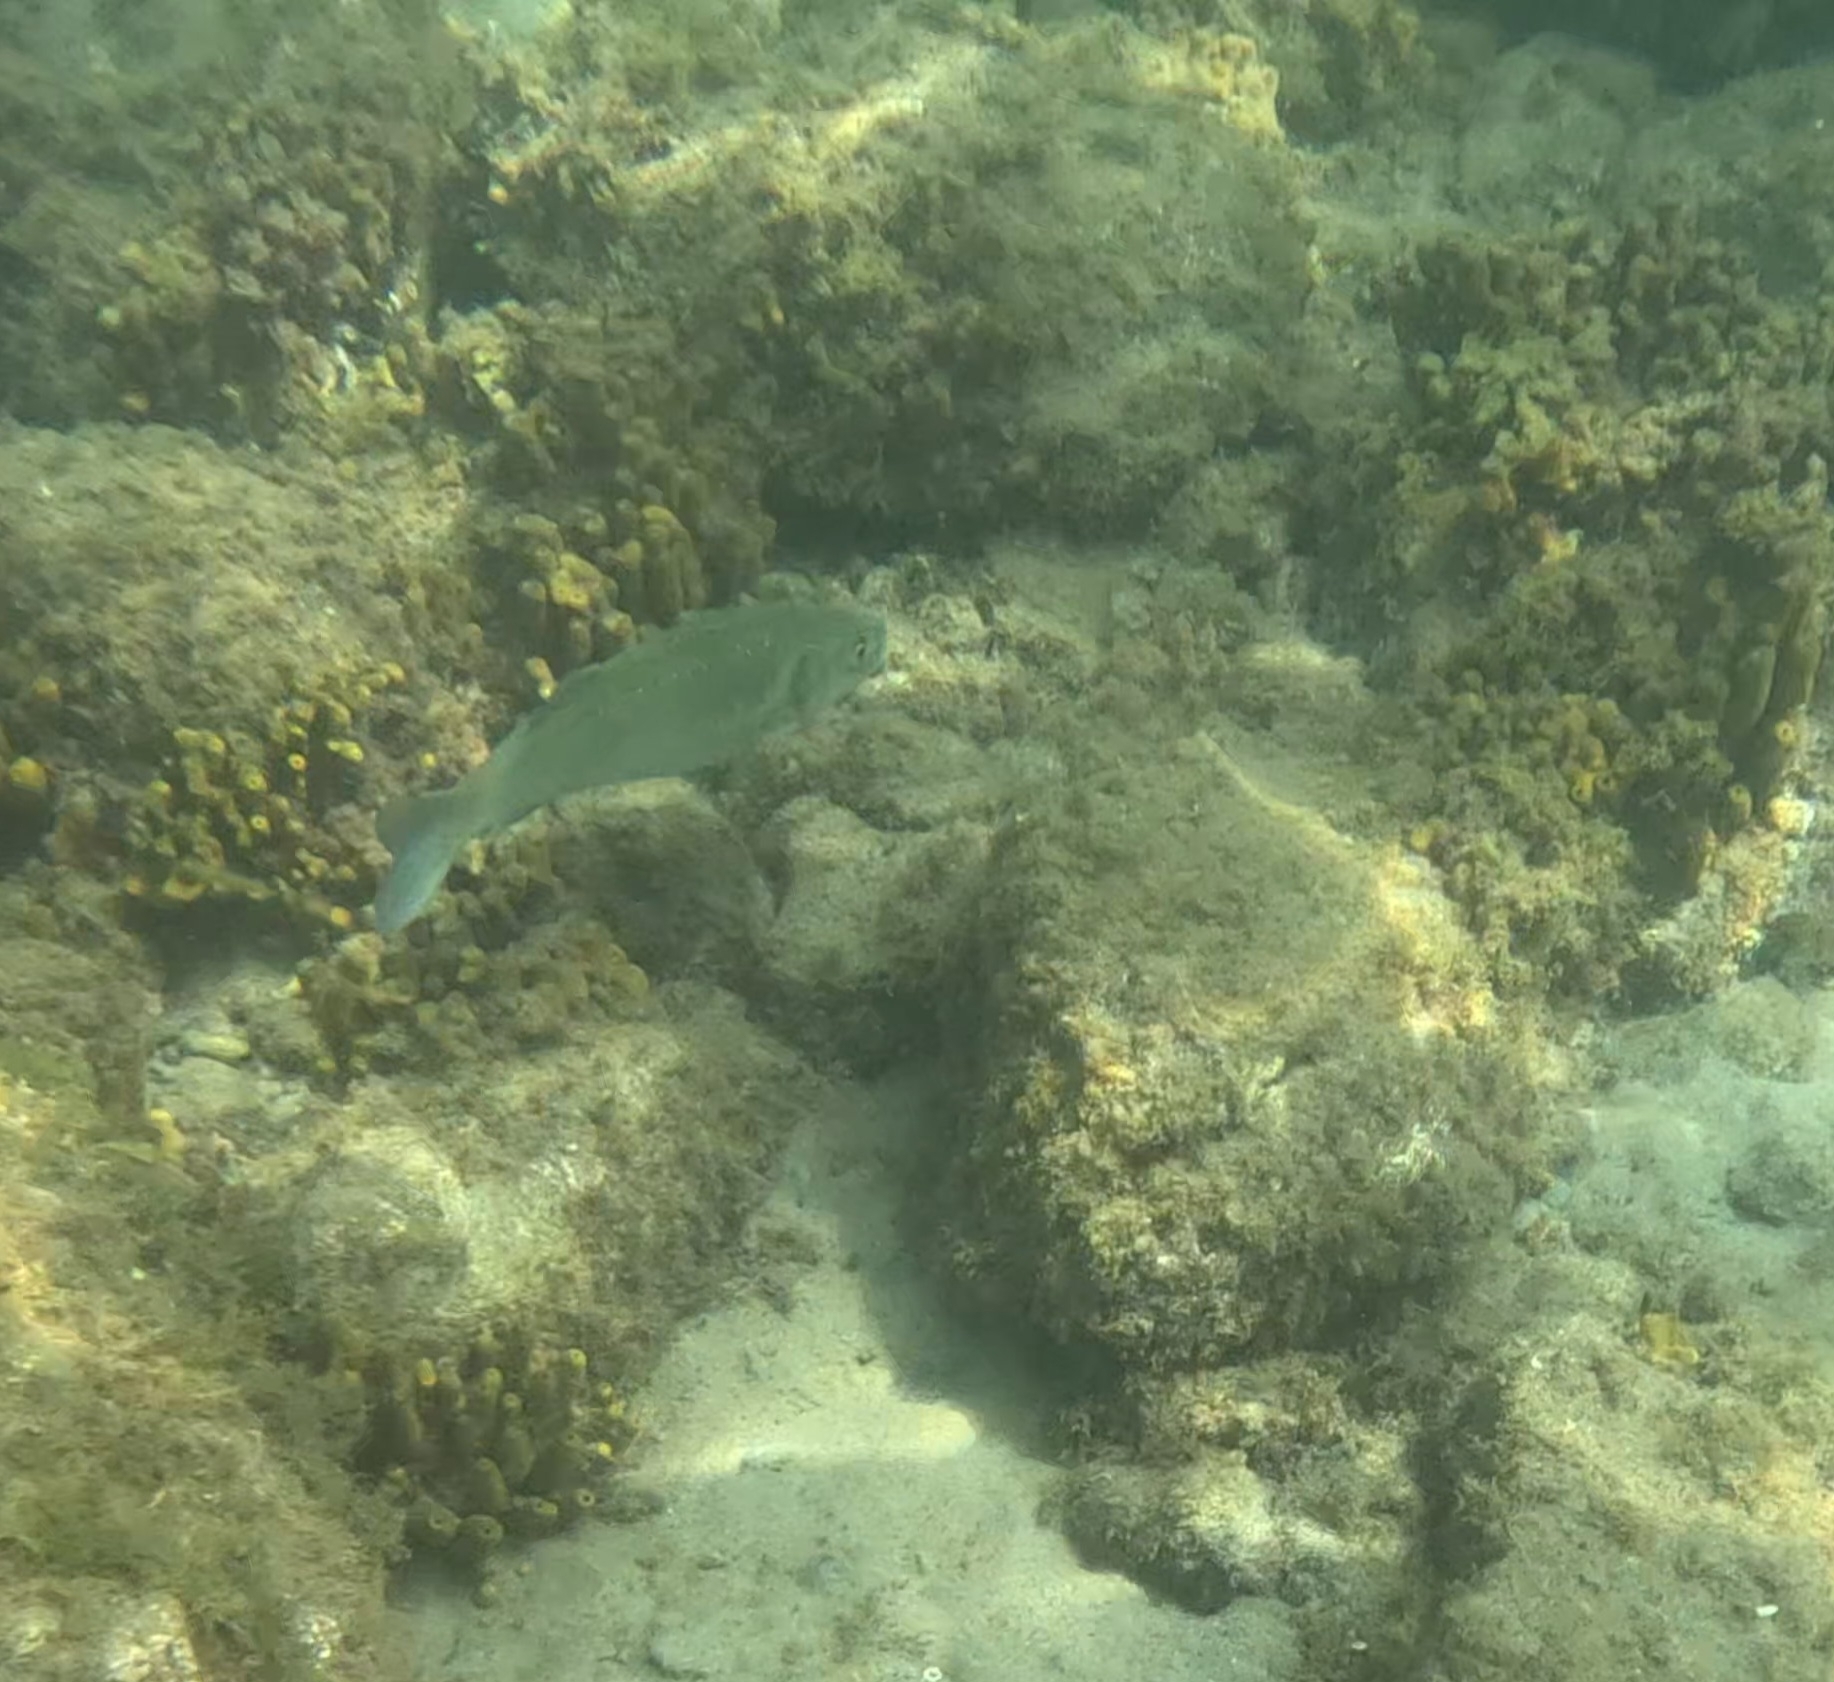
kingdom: Animalia
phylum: Chordata
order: Perciformes
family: Moronidae
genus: Dicentrarchus
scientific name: Dicentrarchus labrax
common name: European seabass
